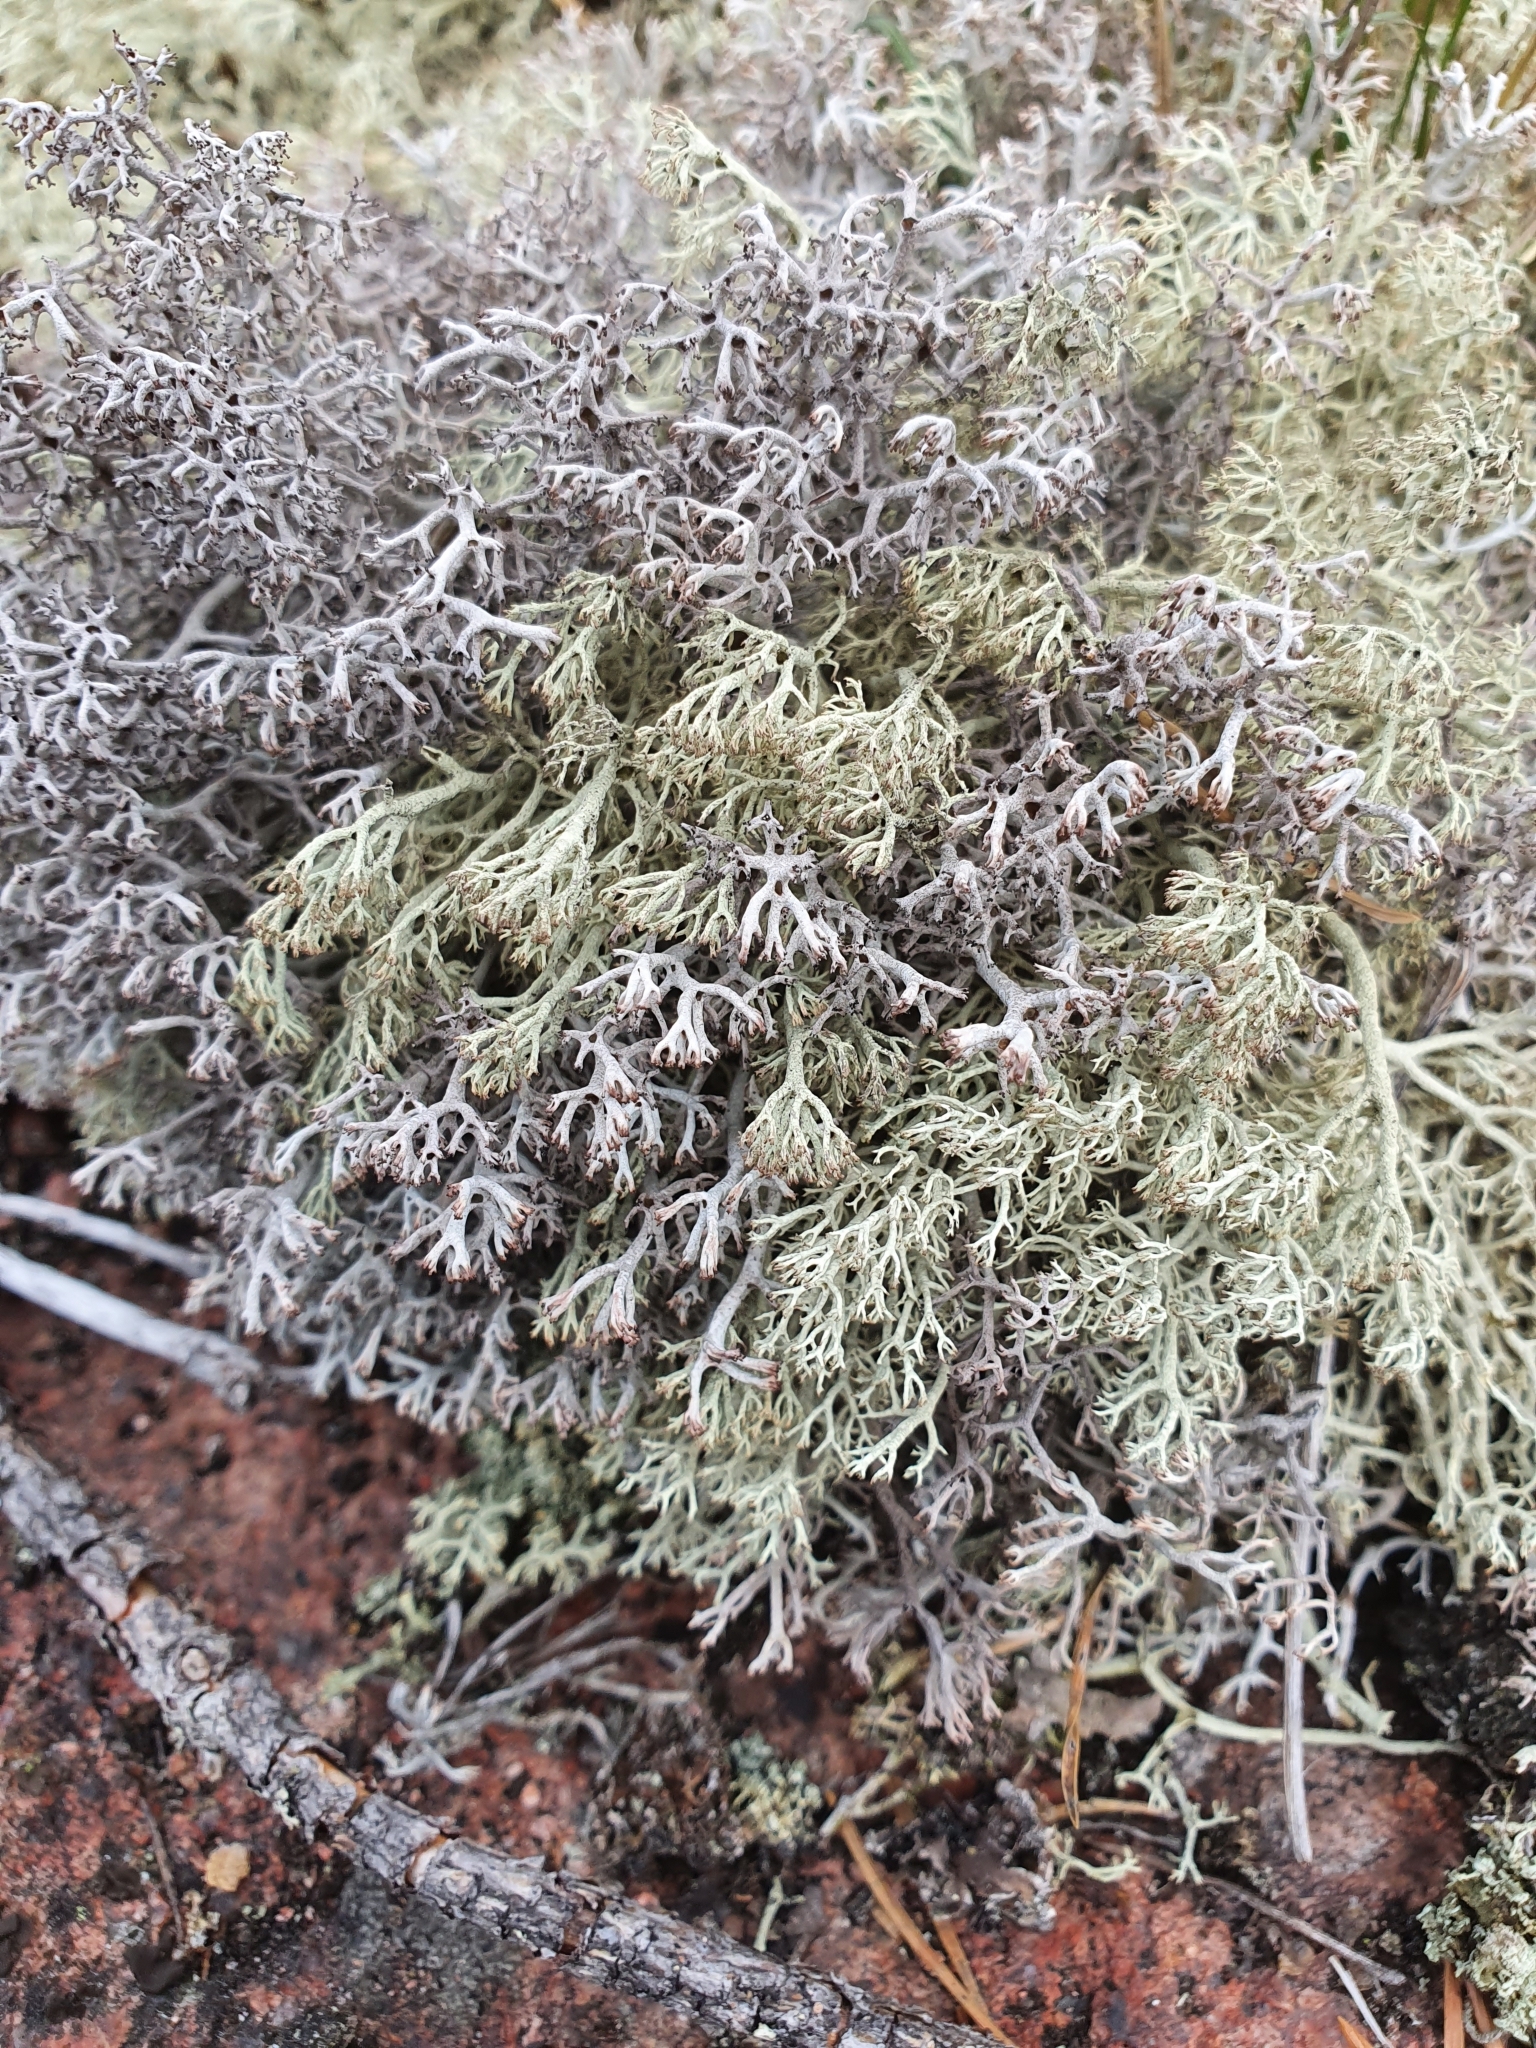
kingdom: Fungi
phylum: Ascomycota
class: Lecanoromycetes
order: Lecanorales
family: Cladoniaceae
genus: Cladonia
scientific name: Cladonia arbuscula
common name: Reindeer lichen
